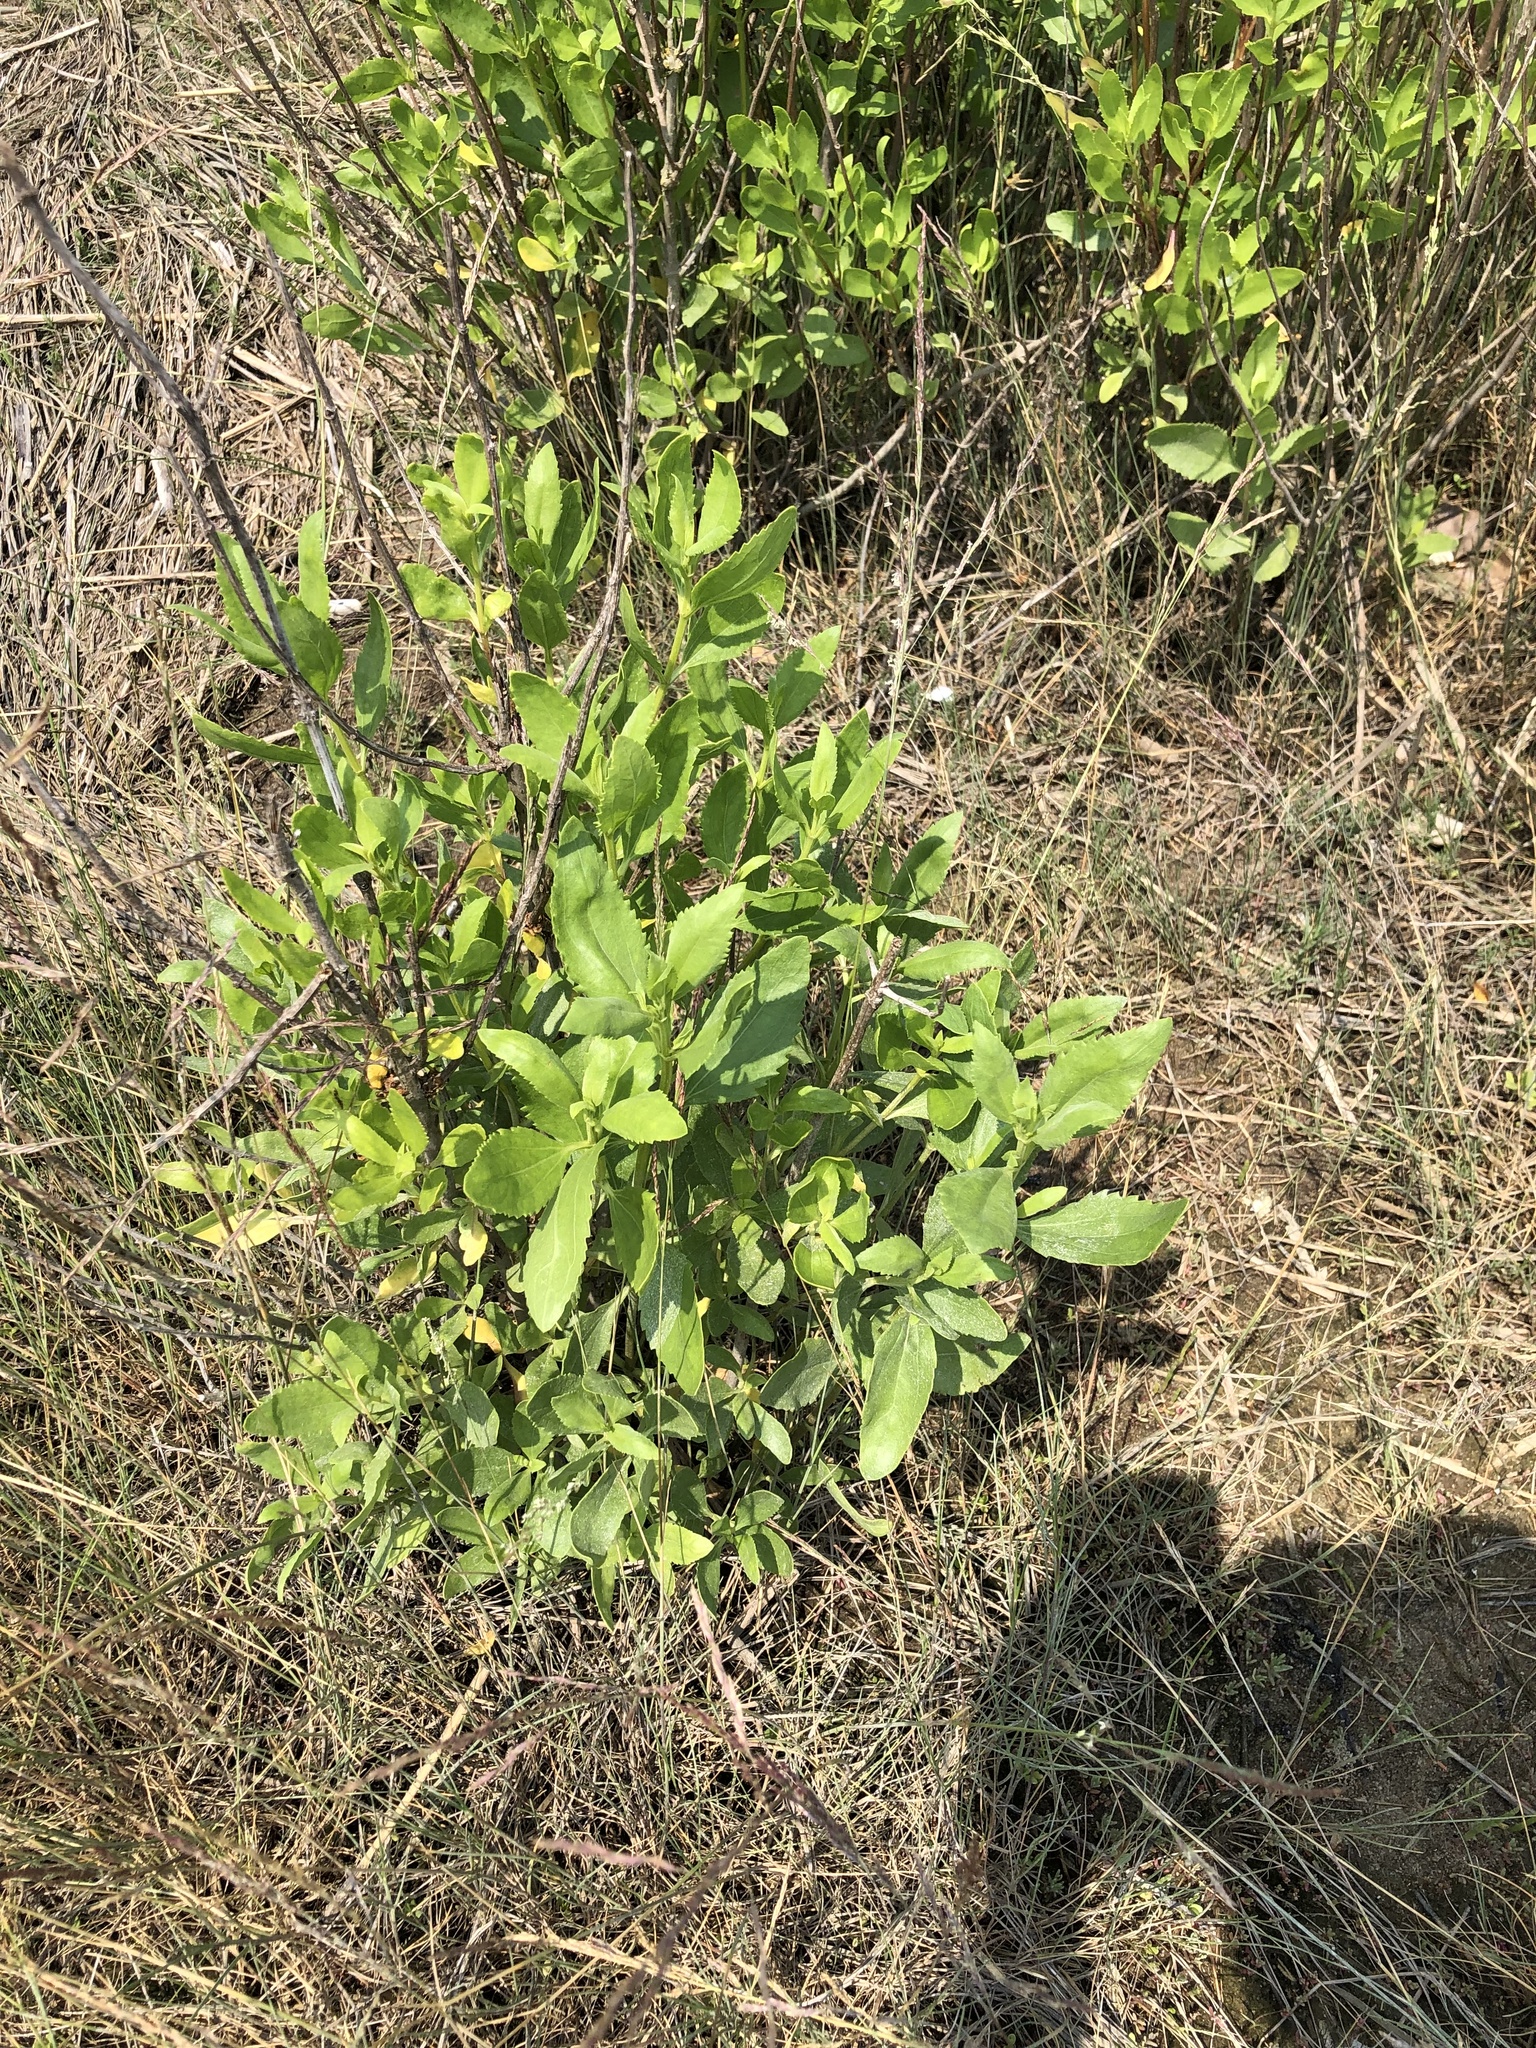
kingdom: Plantae
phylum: Tracheophyta
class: Magnoliopsida
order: Asterales
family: Asteraceae
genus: Iva
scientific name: Iva frutescens
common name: Big-leaved marsh-elder
